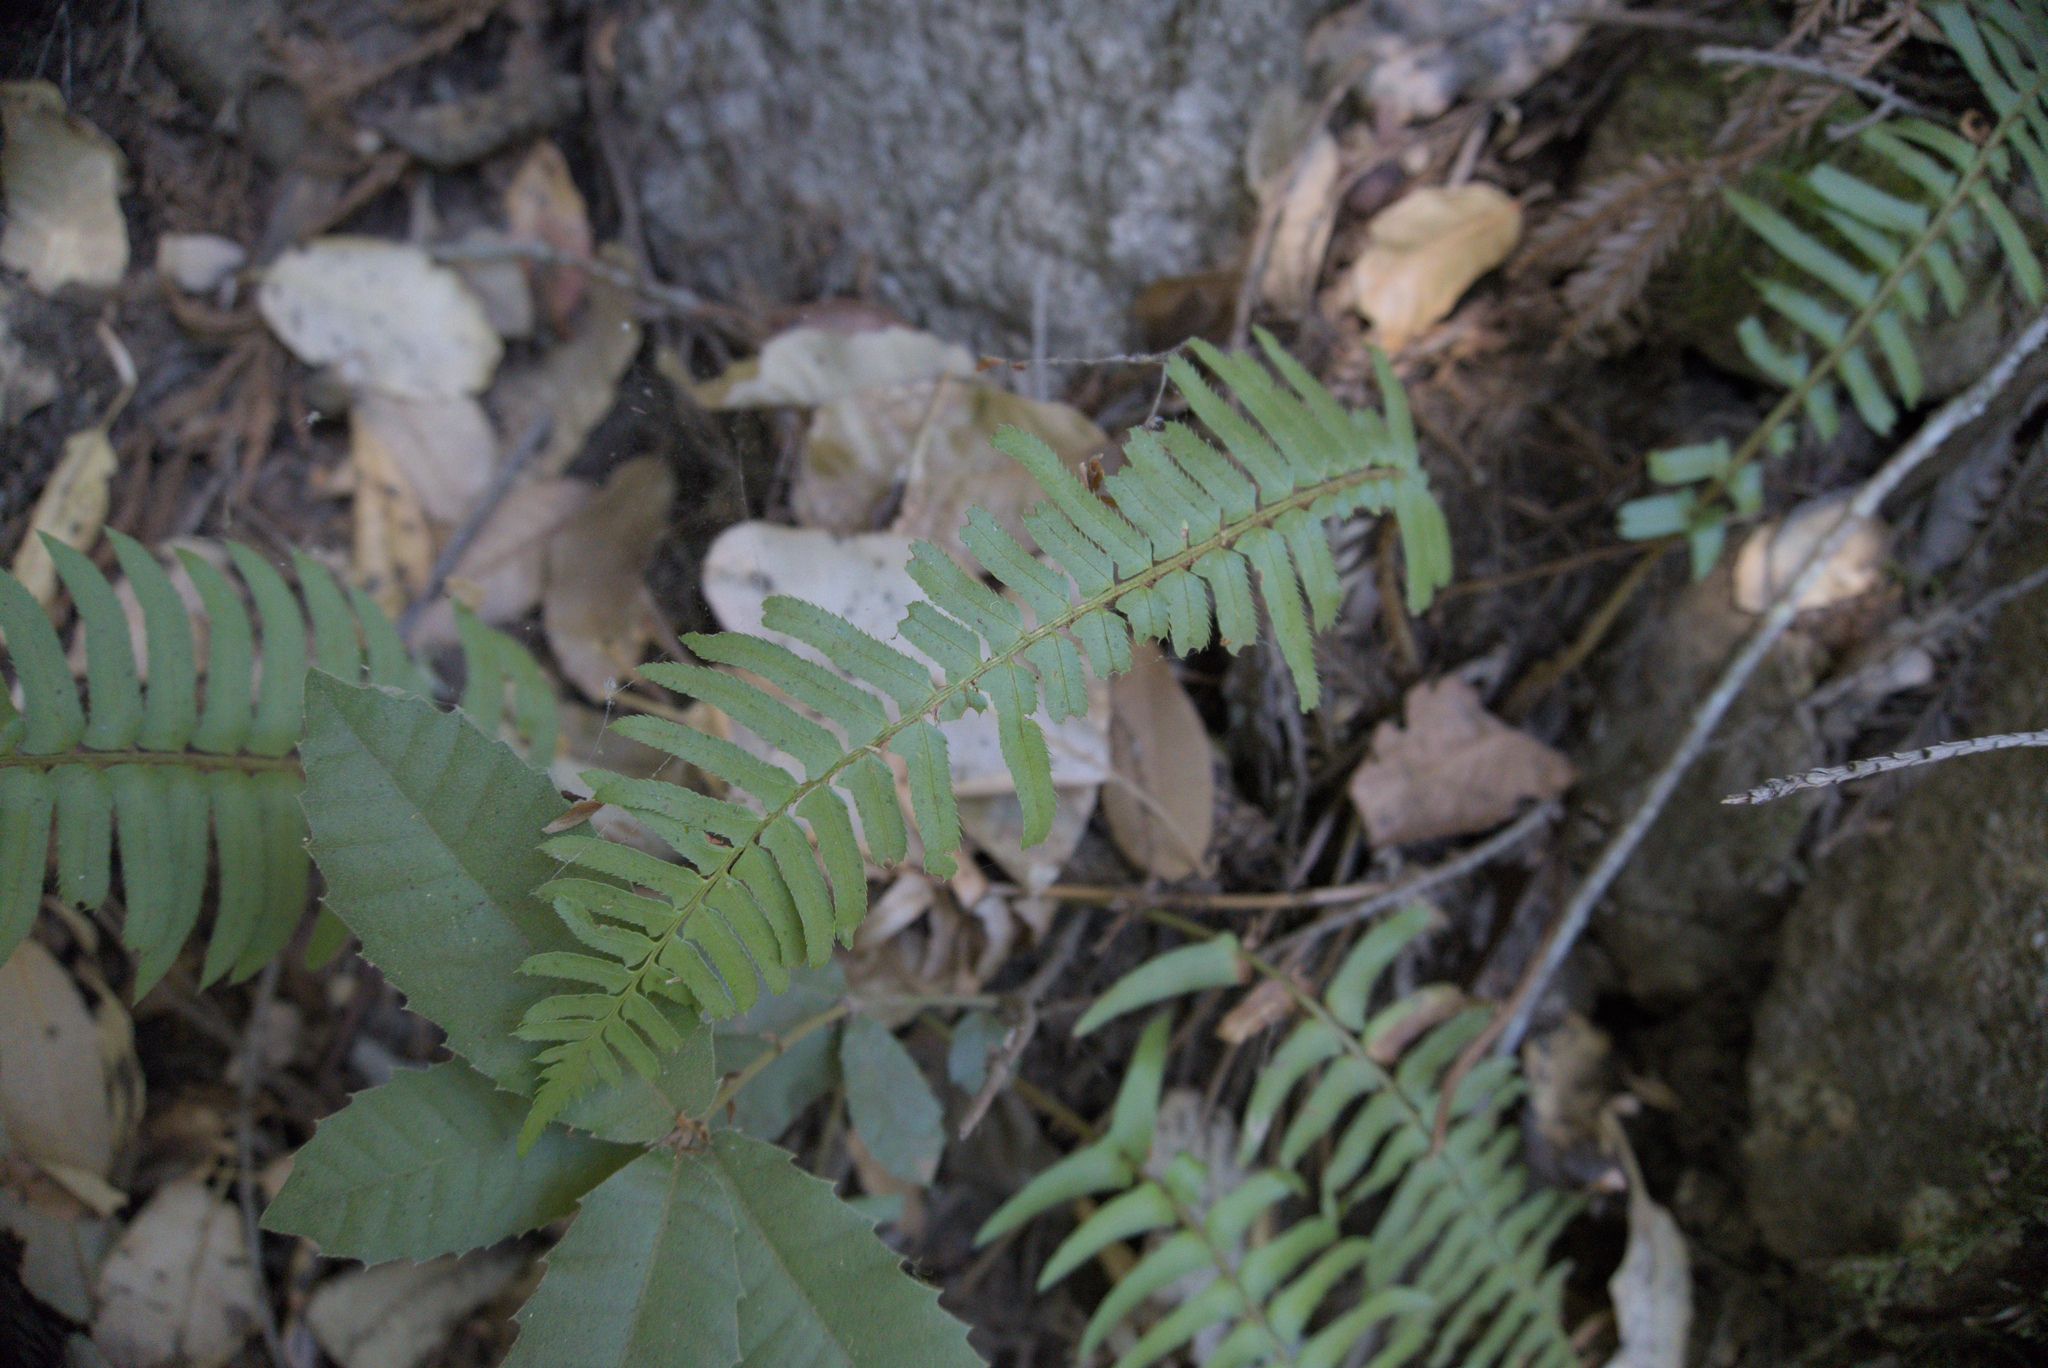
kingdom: Plantae
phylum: Tracheophyta
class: Polypodiopsida
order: Polypodiales
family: Dryopteridaceae
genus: Polystichum
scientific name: Polystichum munitum
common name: Western sword-fern
